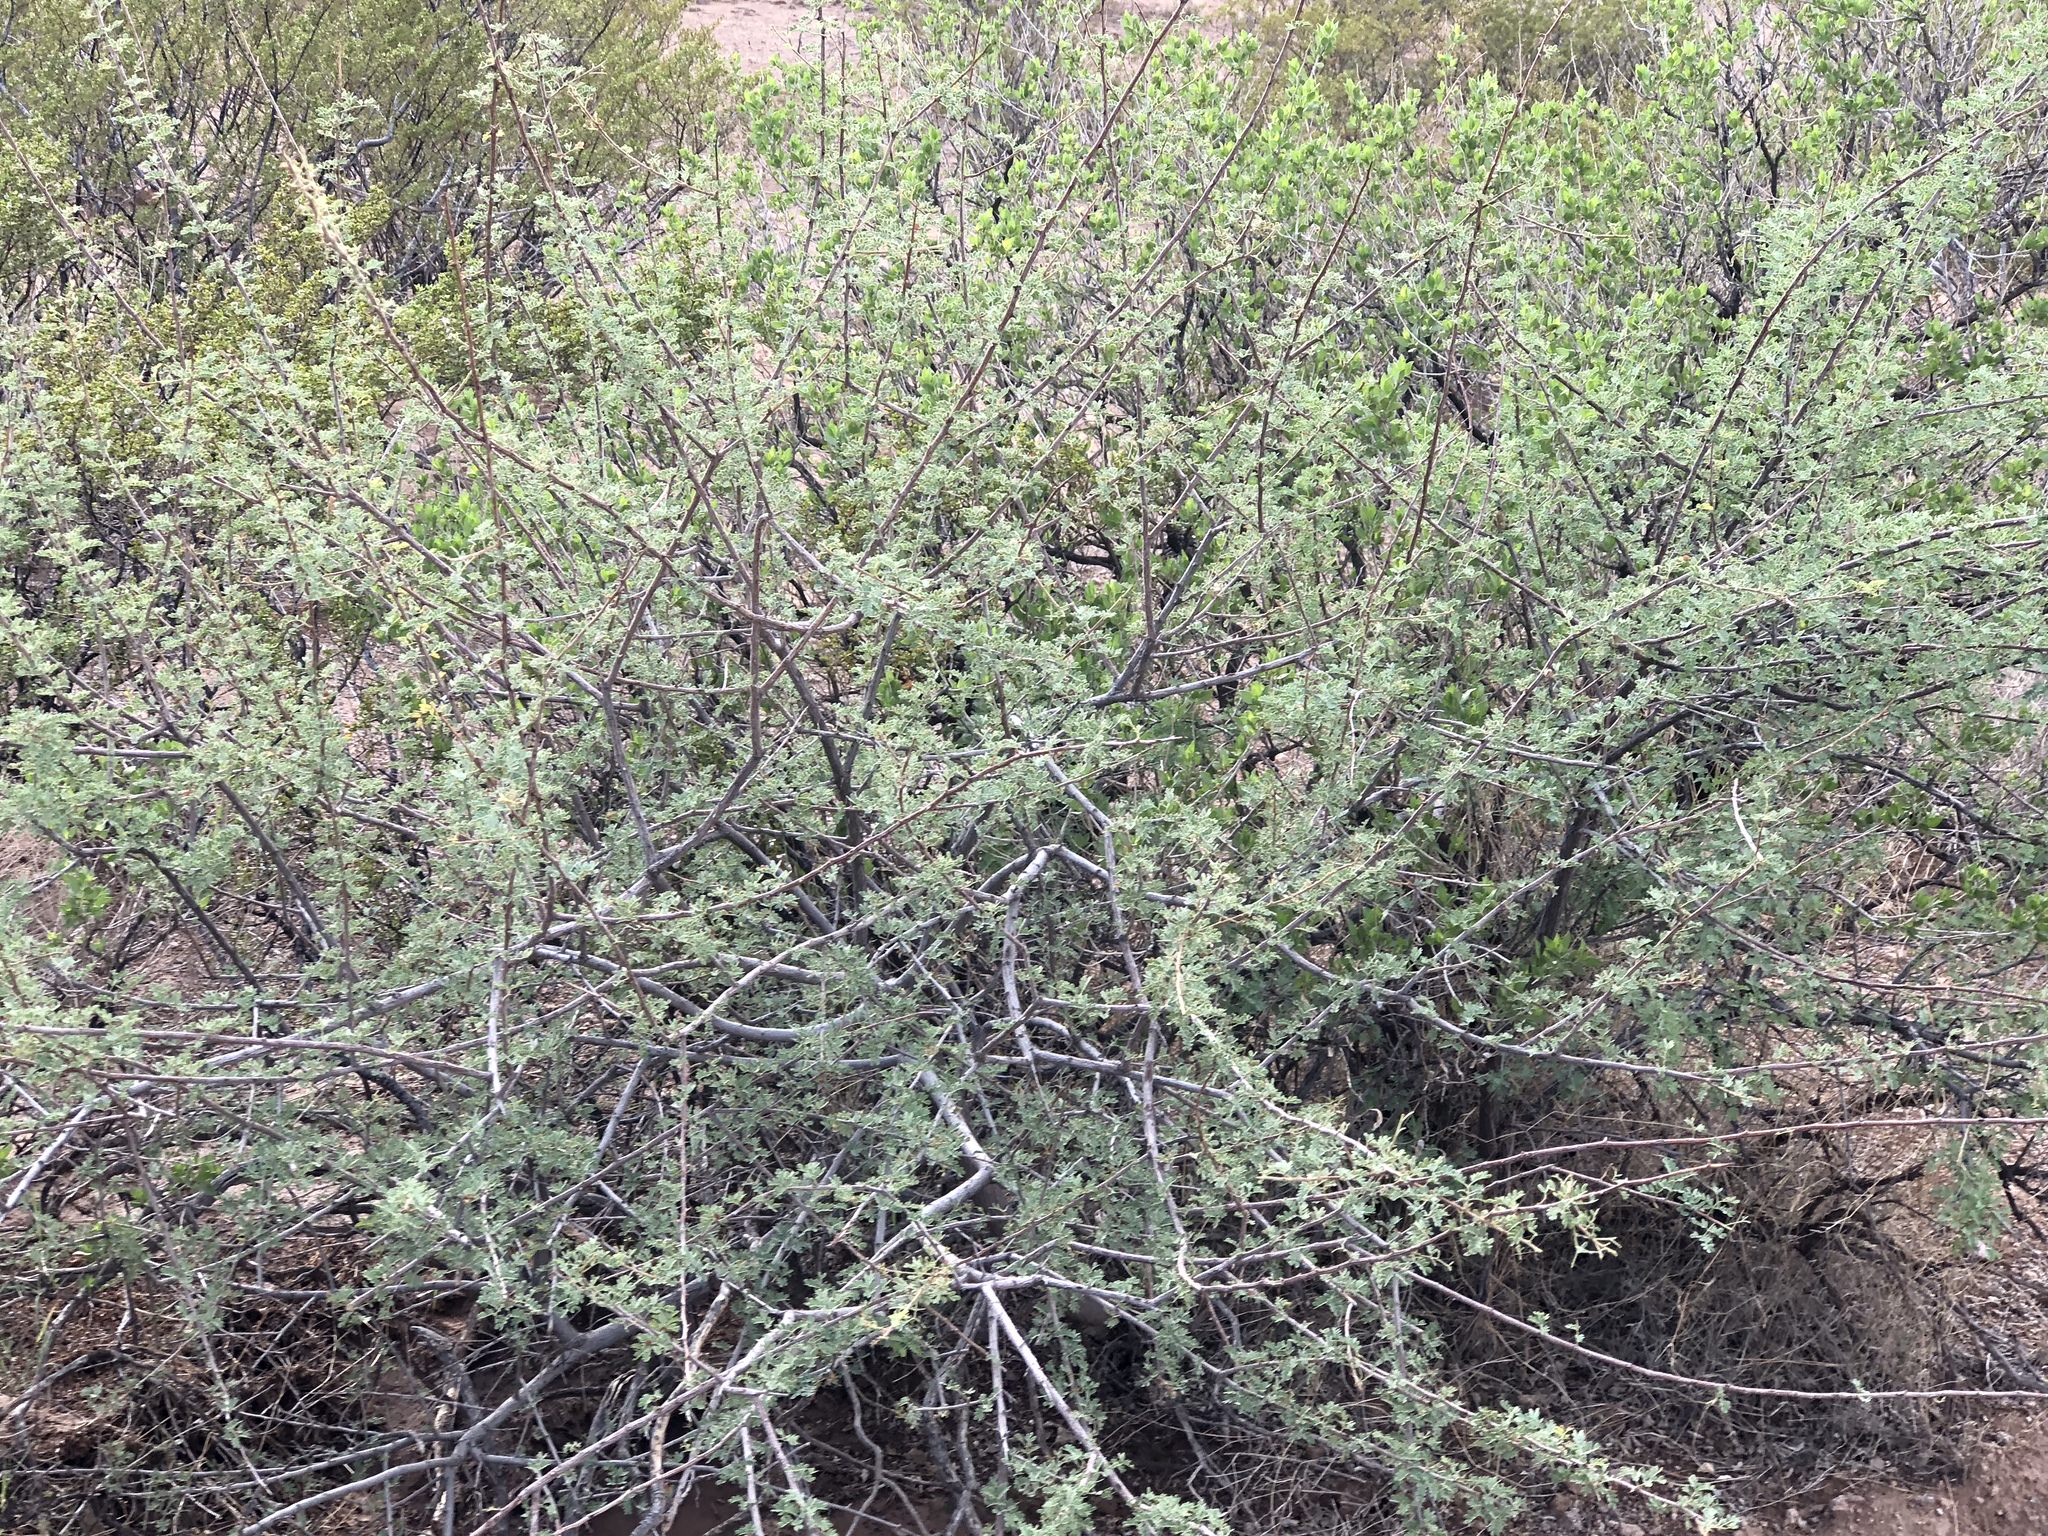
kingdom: Plantae
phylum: Tracheophyta
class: Magnoliopsida
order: Fabales
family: Fabaceae
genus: Senegalia
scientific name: Senegalia greggii
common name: Texas-mimosa
